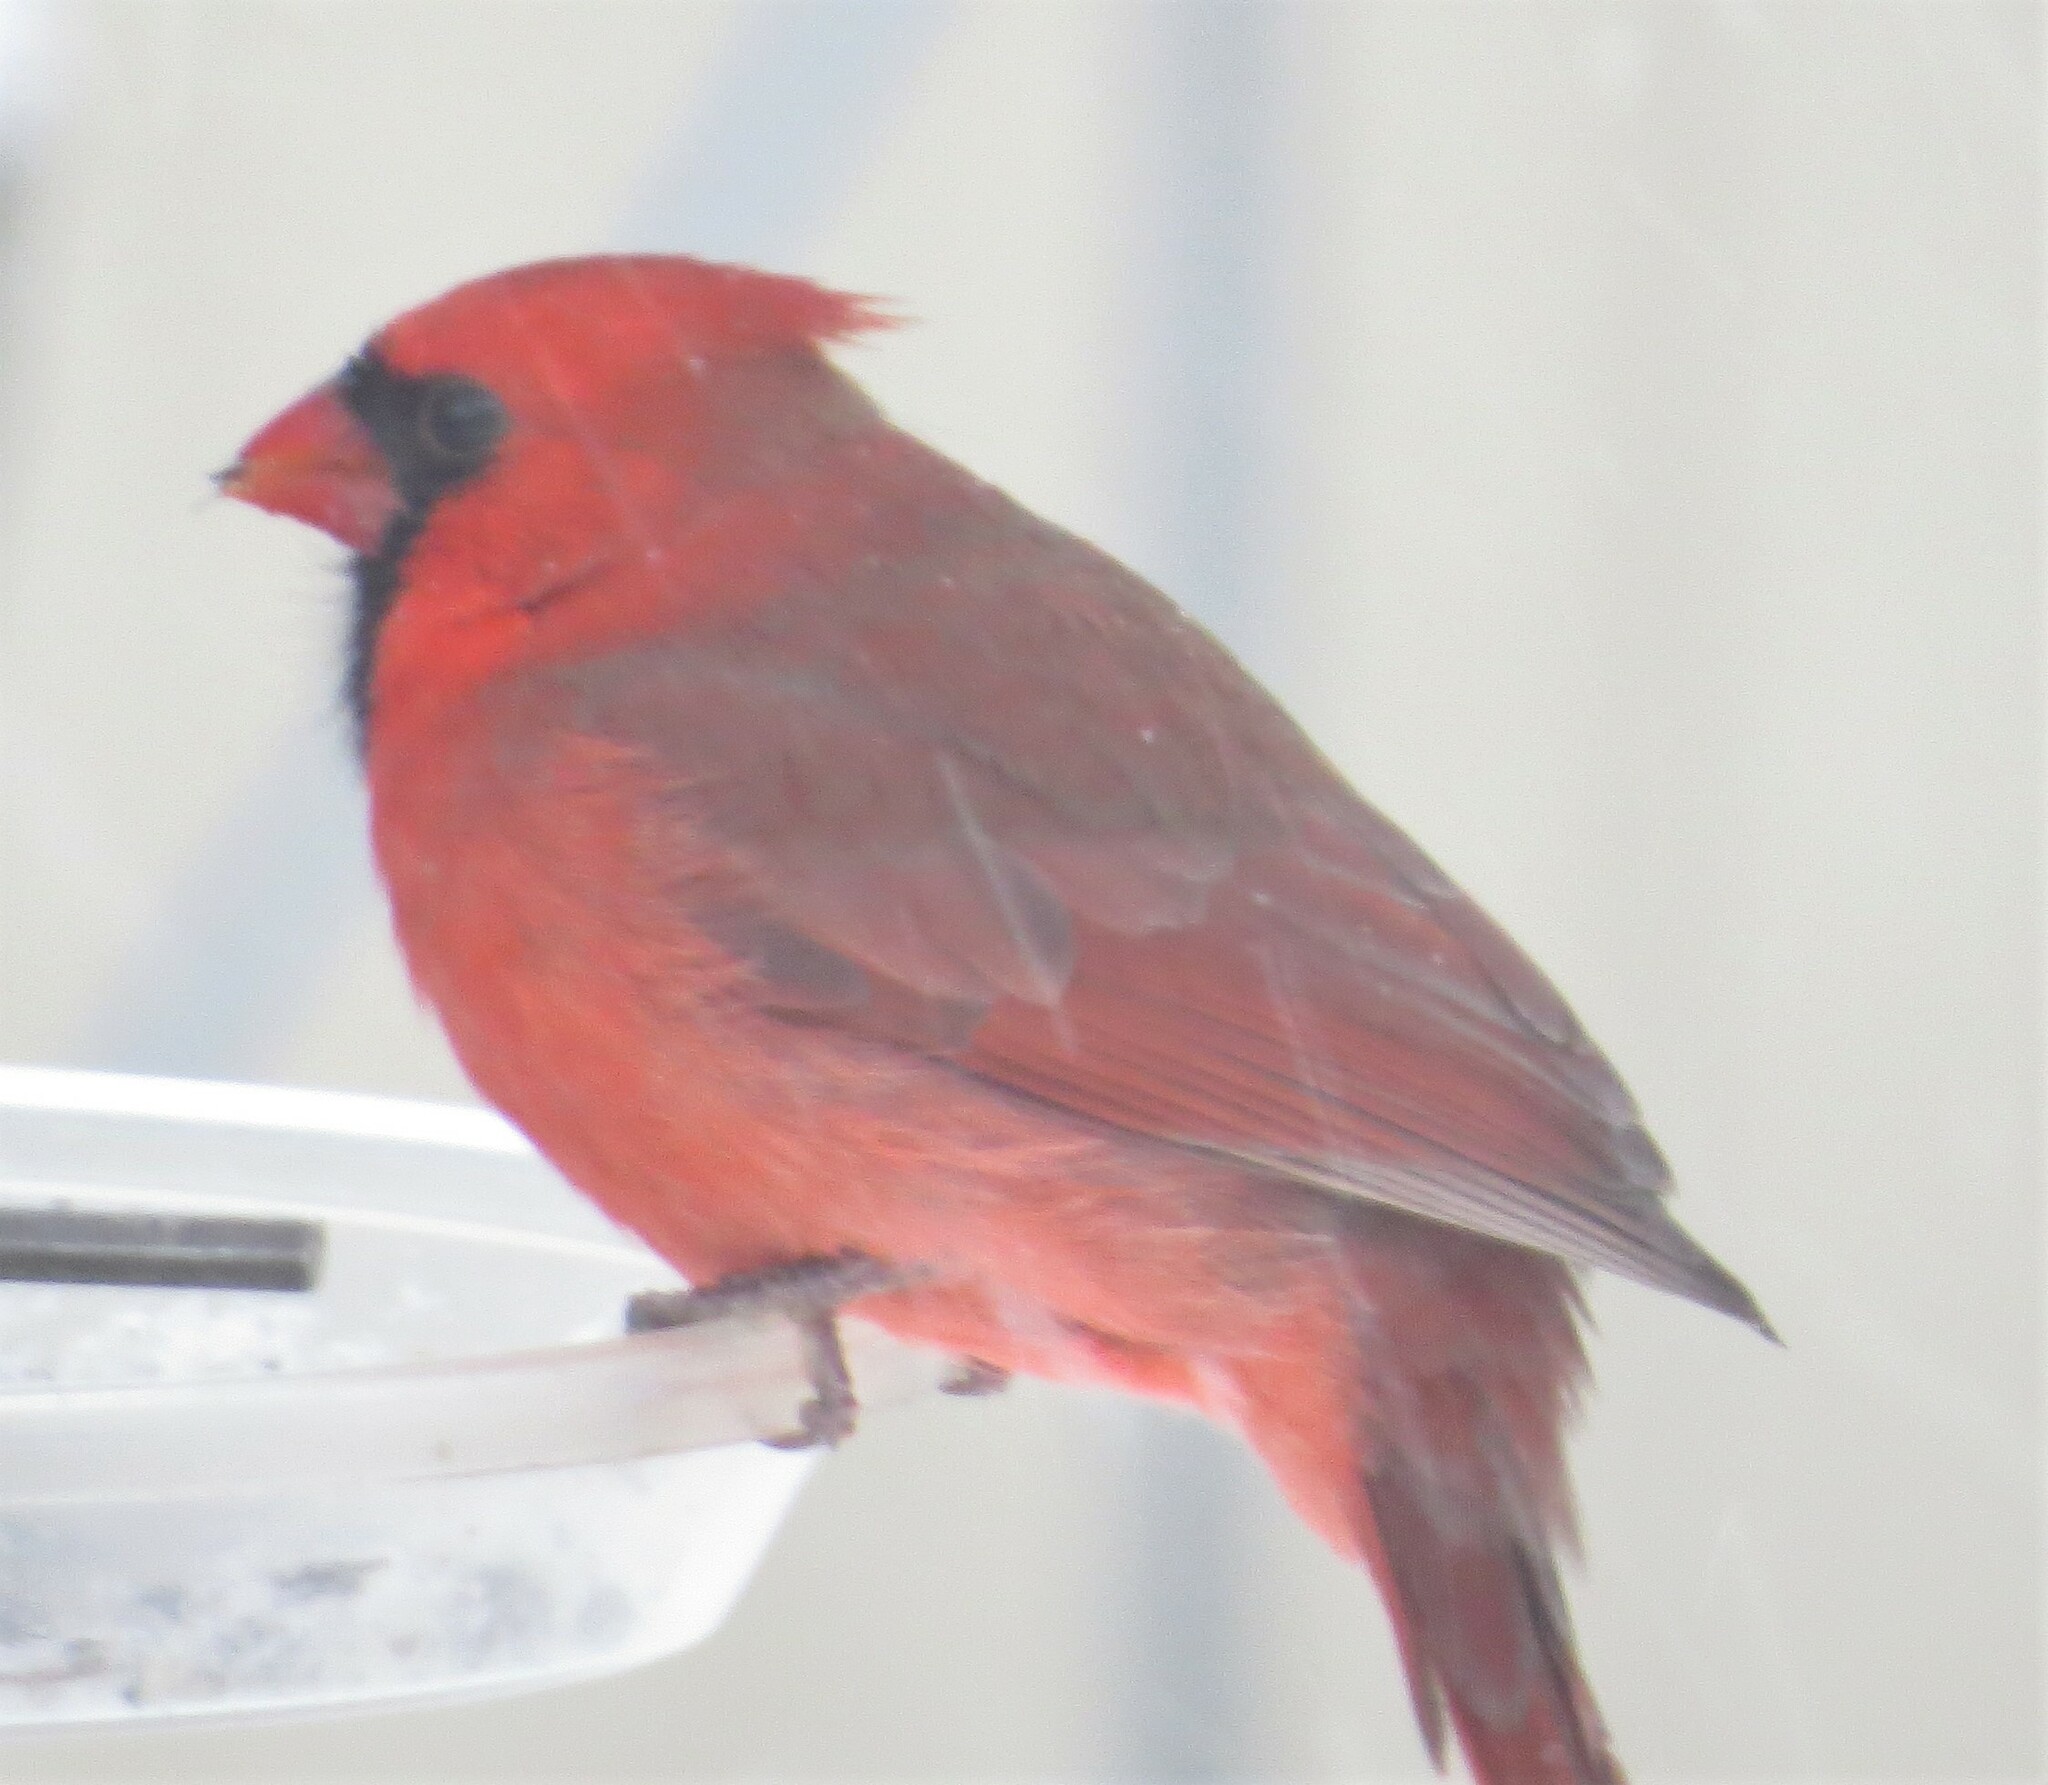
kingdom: Animalia
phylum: Chordata
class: Aves
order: Passeriformes
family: Cardinalidae
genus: Cardinalis
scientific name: Cardinalis cardinalis
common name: Northern cardinal
